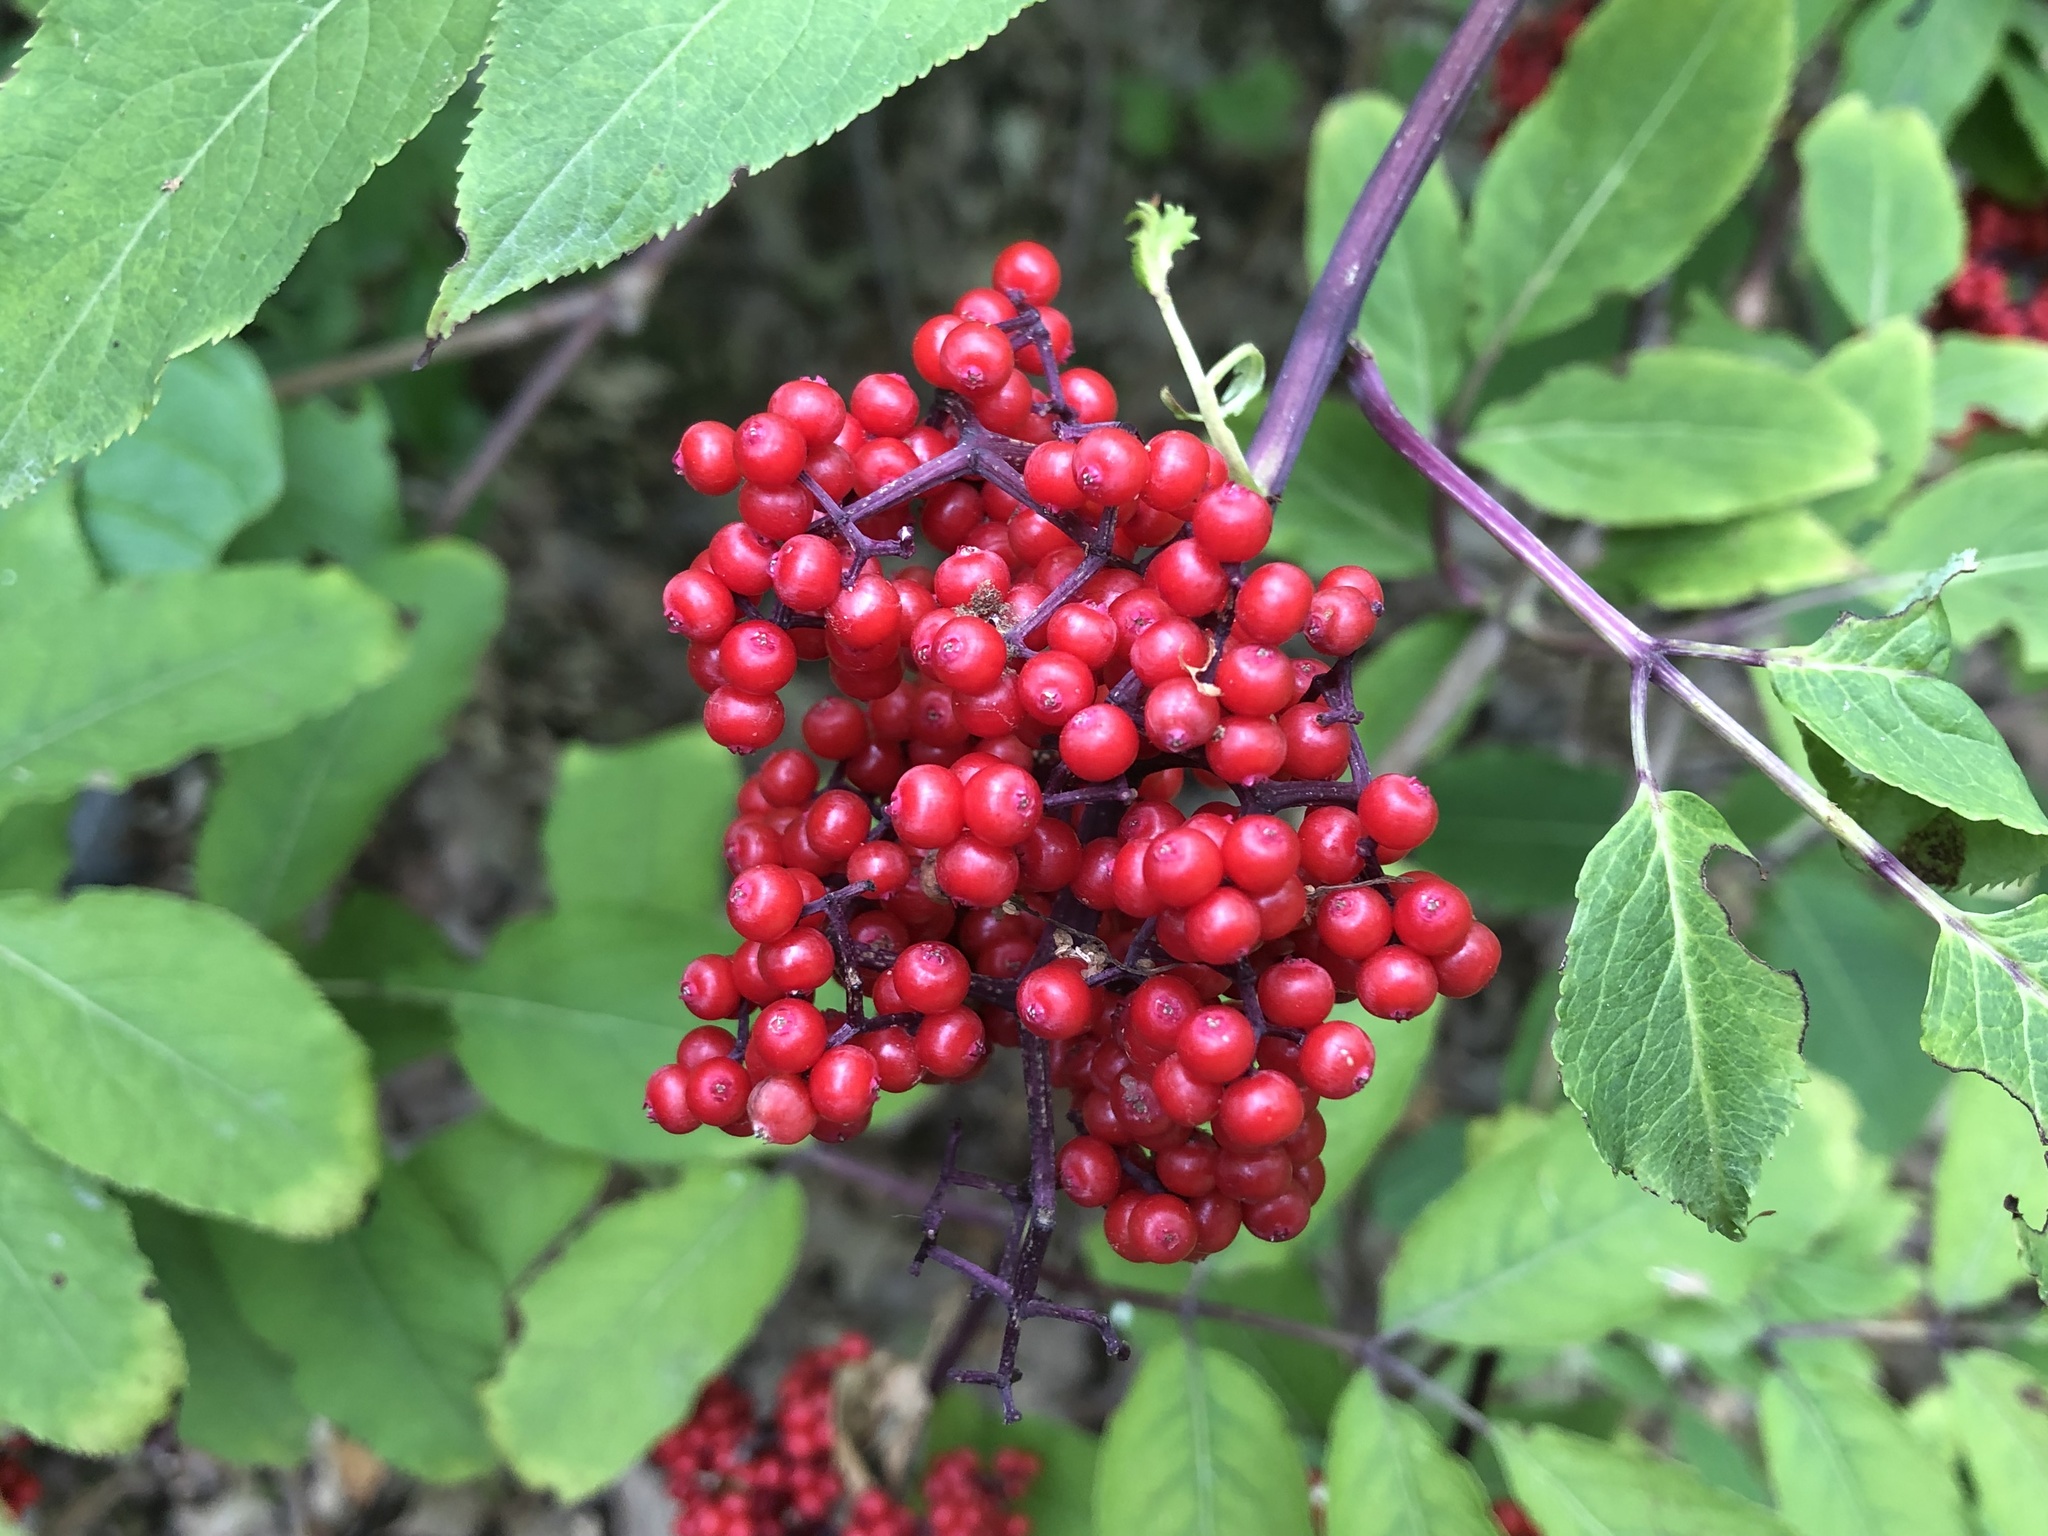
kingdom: Plantae
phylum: Tracheophyta
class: Magnoliopsida
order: Dipsacales
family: Viburnaceae
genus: Sambucus
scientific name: Sambucus racemosa
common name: Red-berried elder
